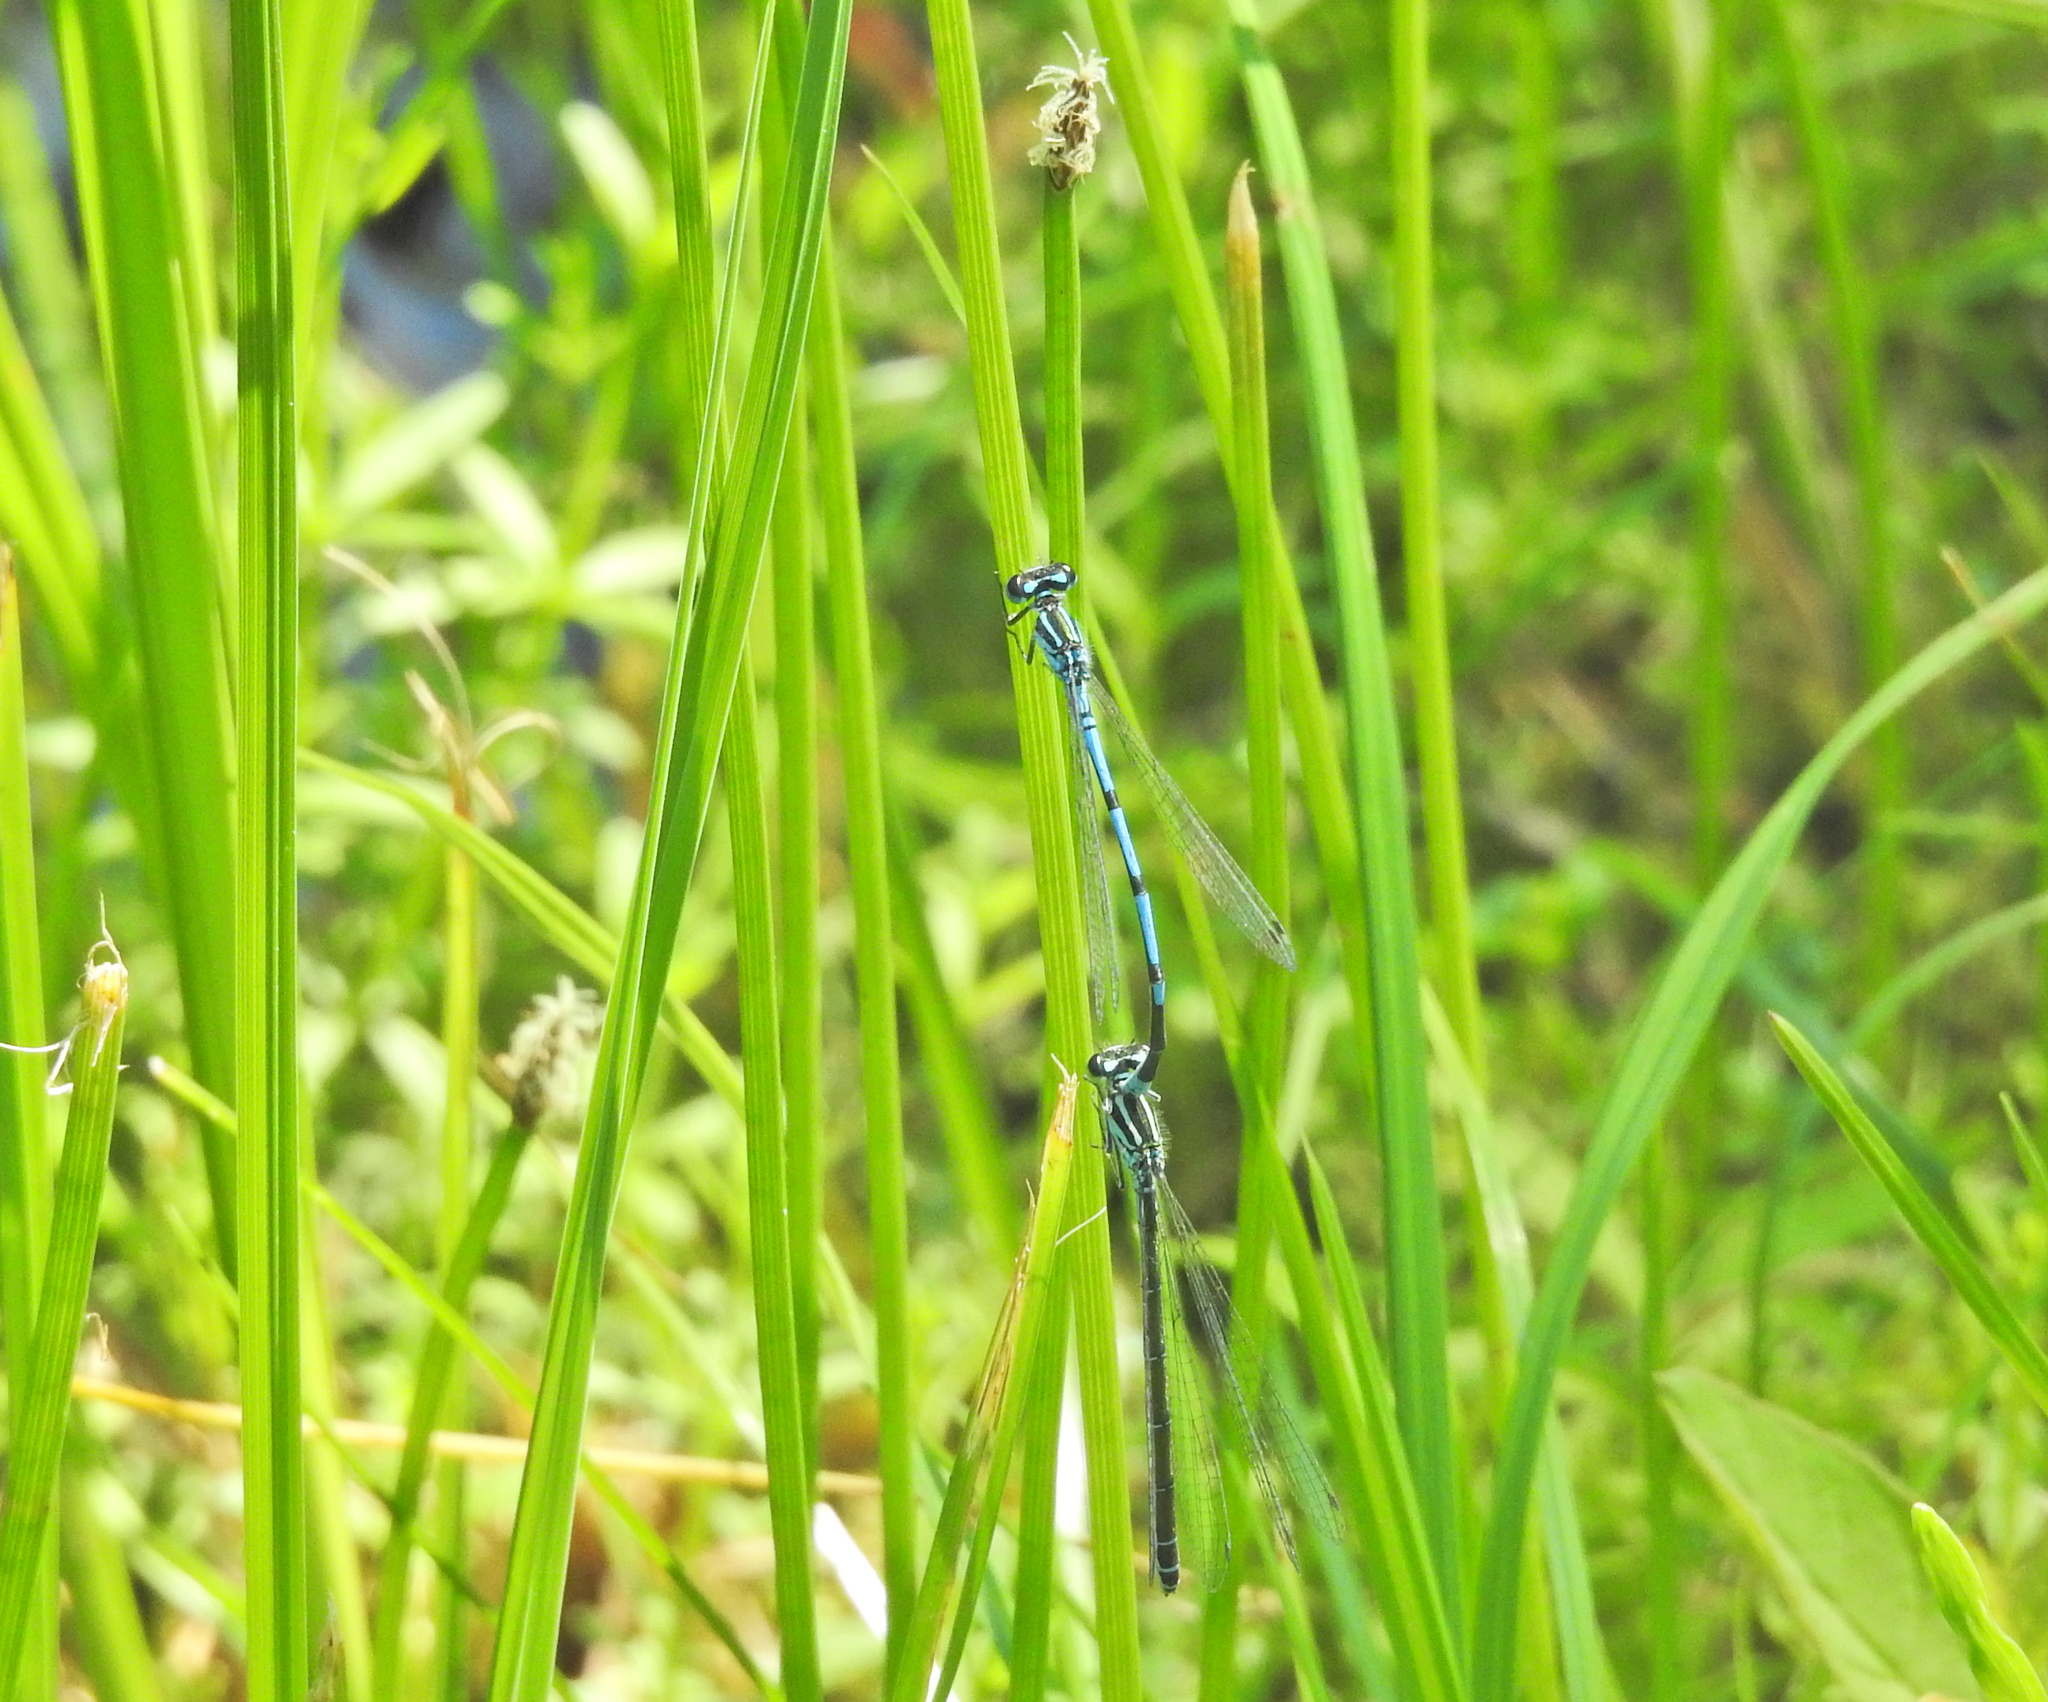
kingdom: Animalia
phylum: Arthropoda
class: Insecta
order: Odonata
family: Coenagrionidae
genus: Coenagrion
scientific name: Coenagrion puella
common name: Azure damselfly
